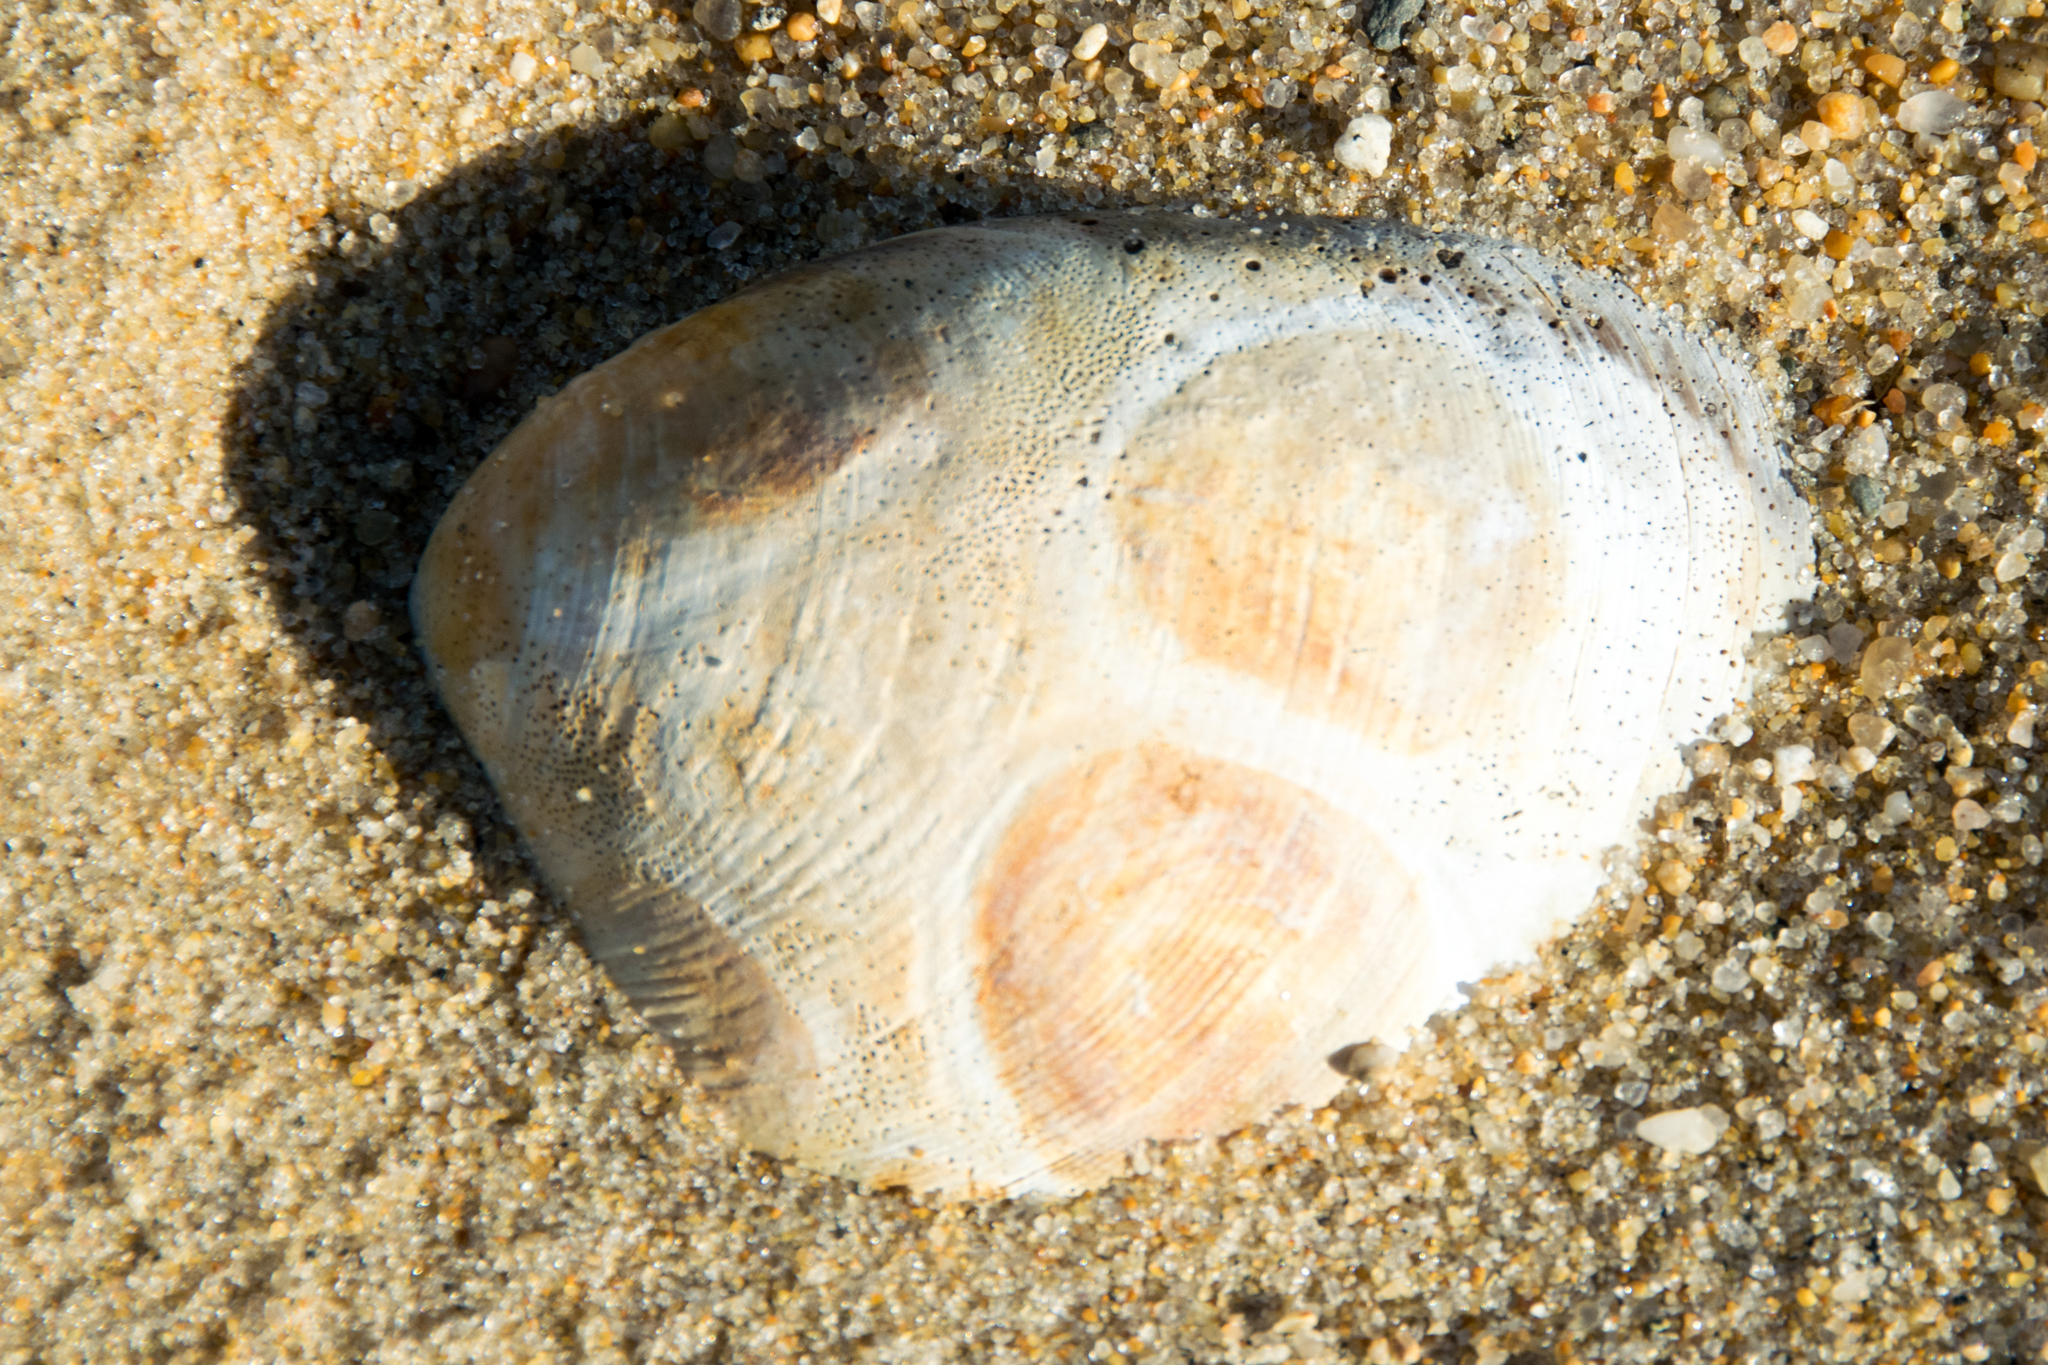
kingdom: Animalia
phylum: Mollusca
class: Bivalvia
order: Venerida
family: Veneridae
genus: Mercenaria
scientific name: Mercenaria mercenaria
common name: American hard-shelled clam
